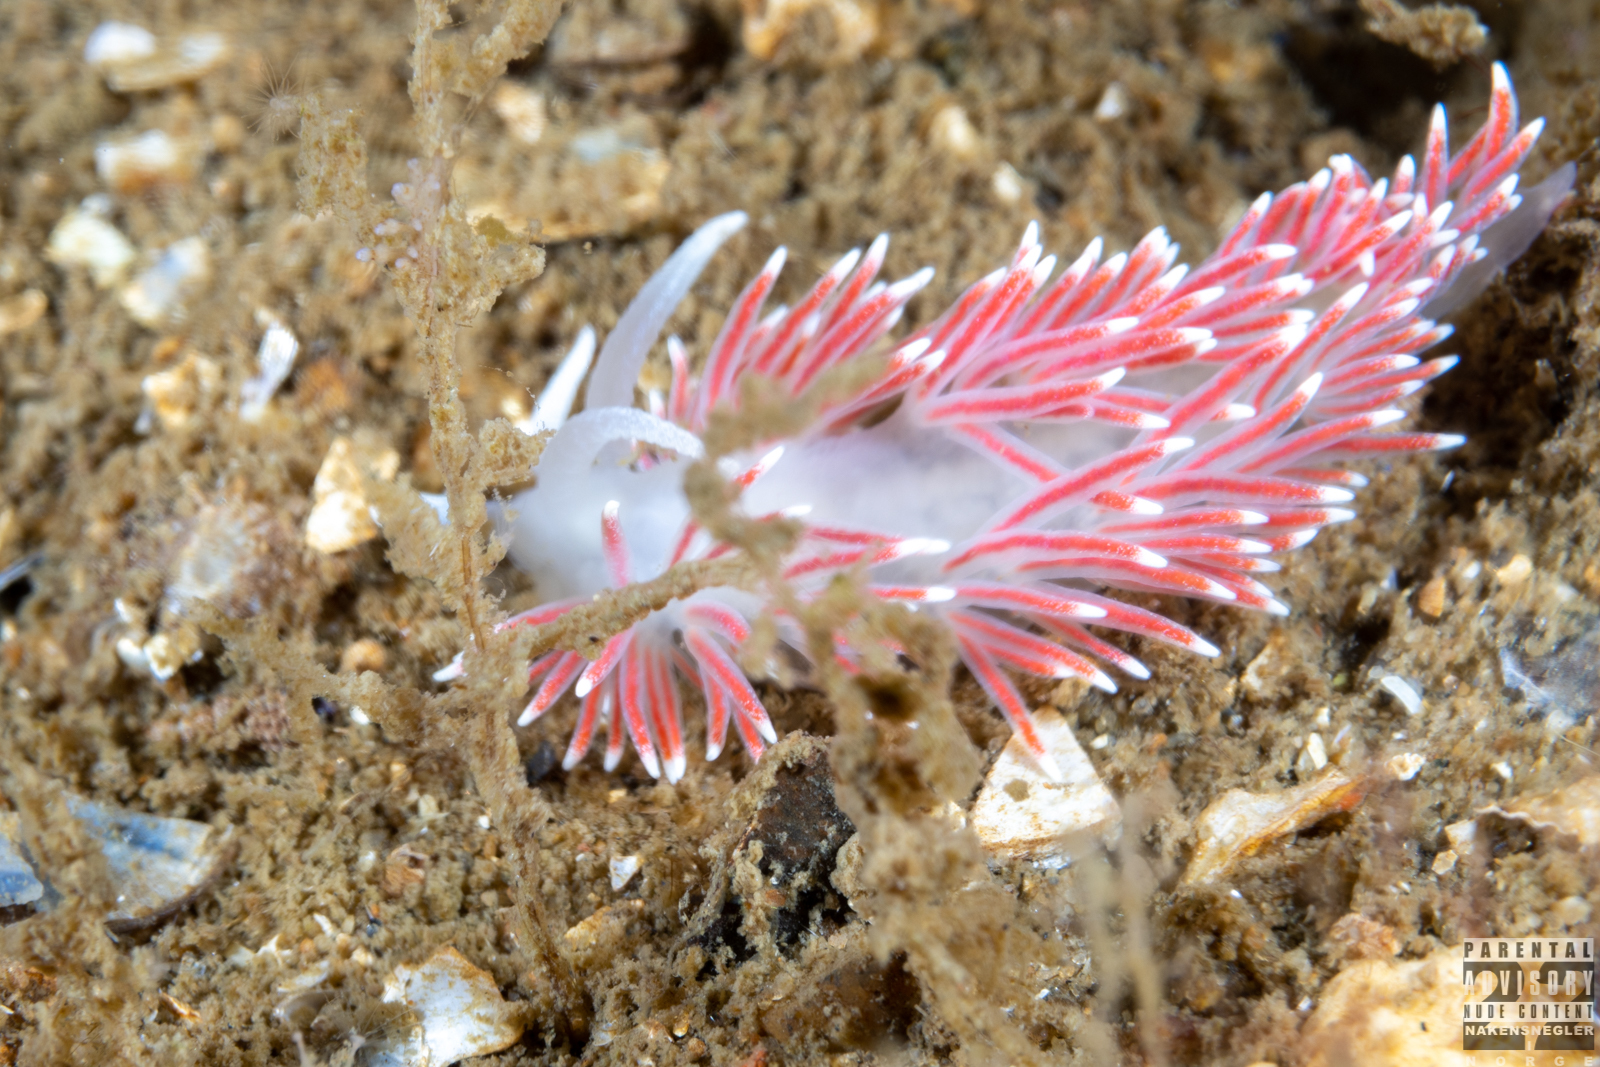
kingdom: Animalia
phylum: Mollusca
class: Gastropoda
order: Nudibranchia
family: Flabellinidae
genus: Carronella
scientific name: Carronella pellucida
